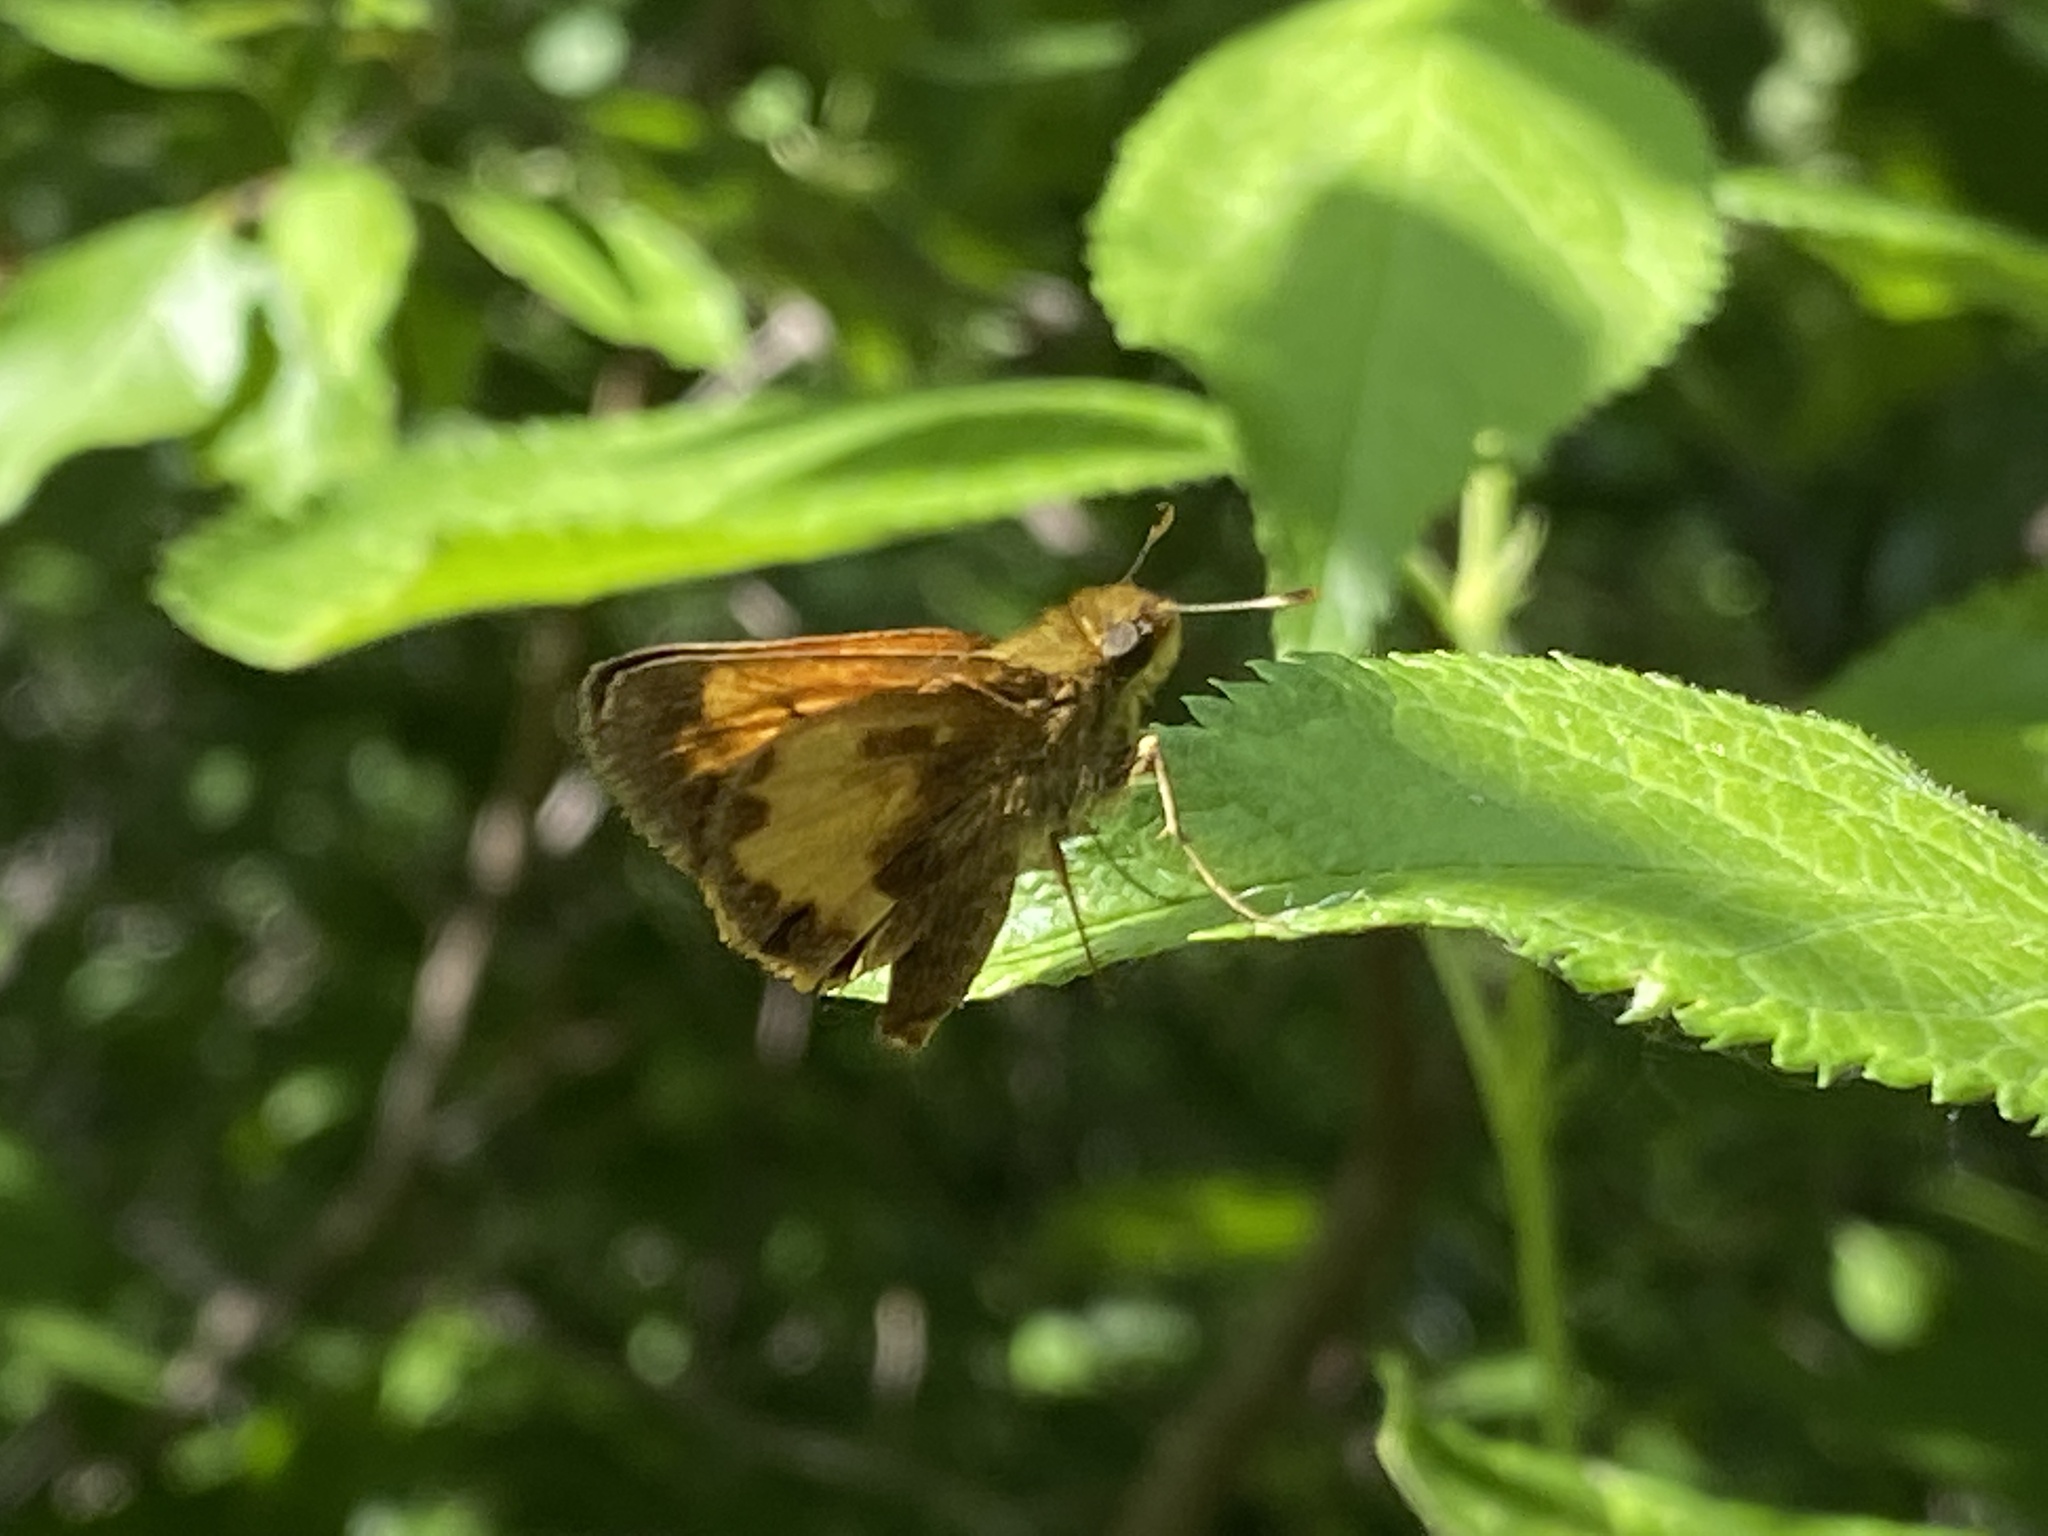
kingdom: Animalia
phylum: Arthropoda
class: Insecta
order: Lepidoptera
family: Hesperiidae
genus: Lon
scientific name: Lon hobomok
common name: Hobomok skipper
